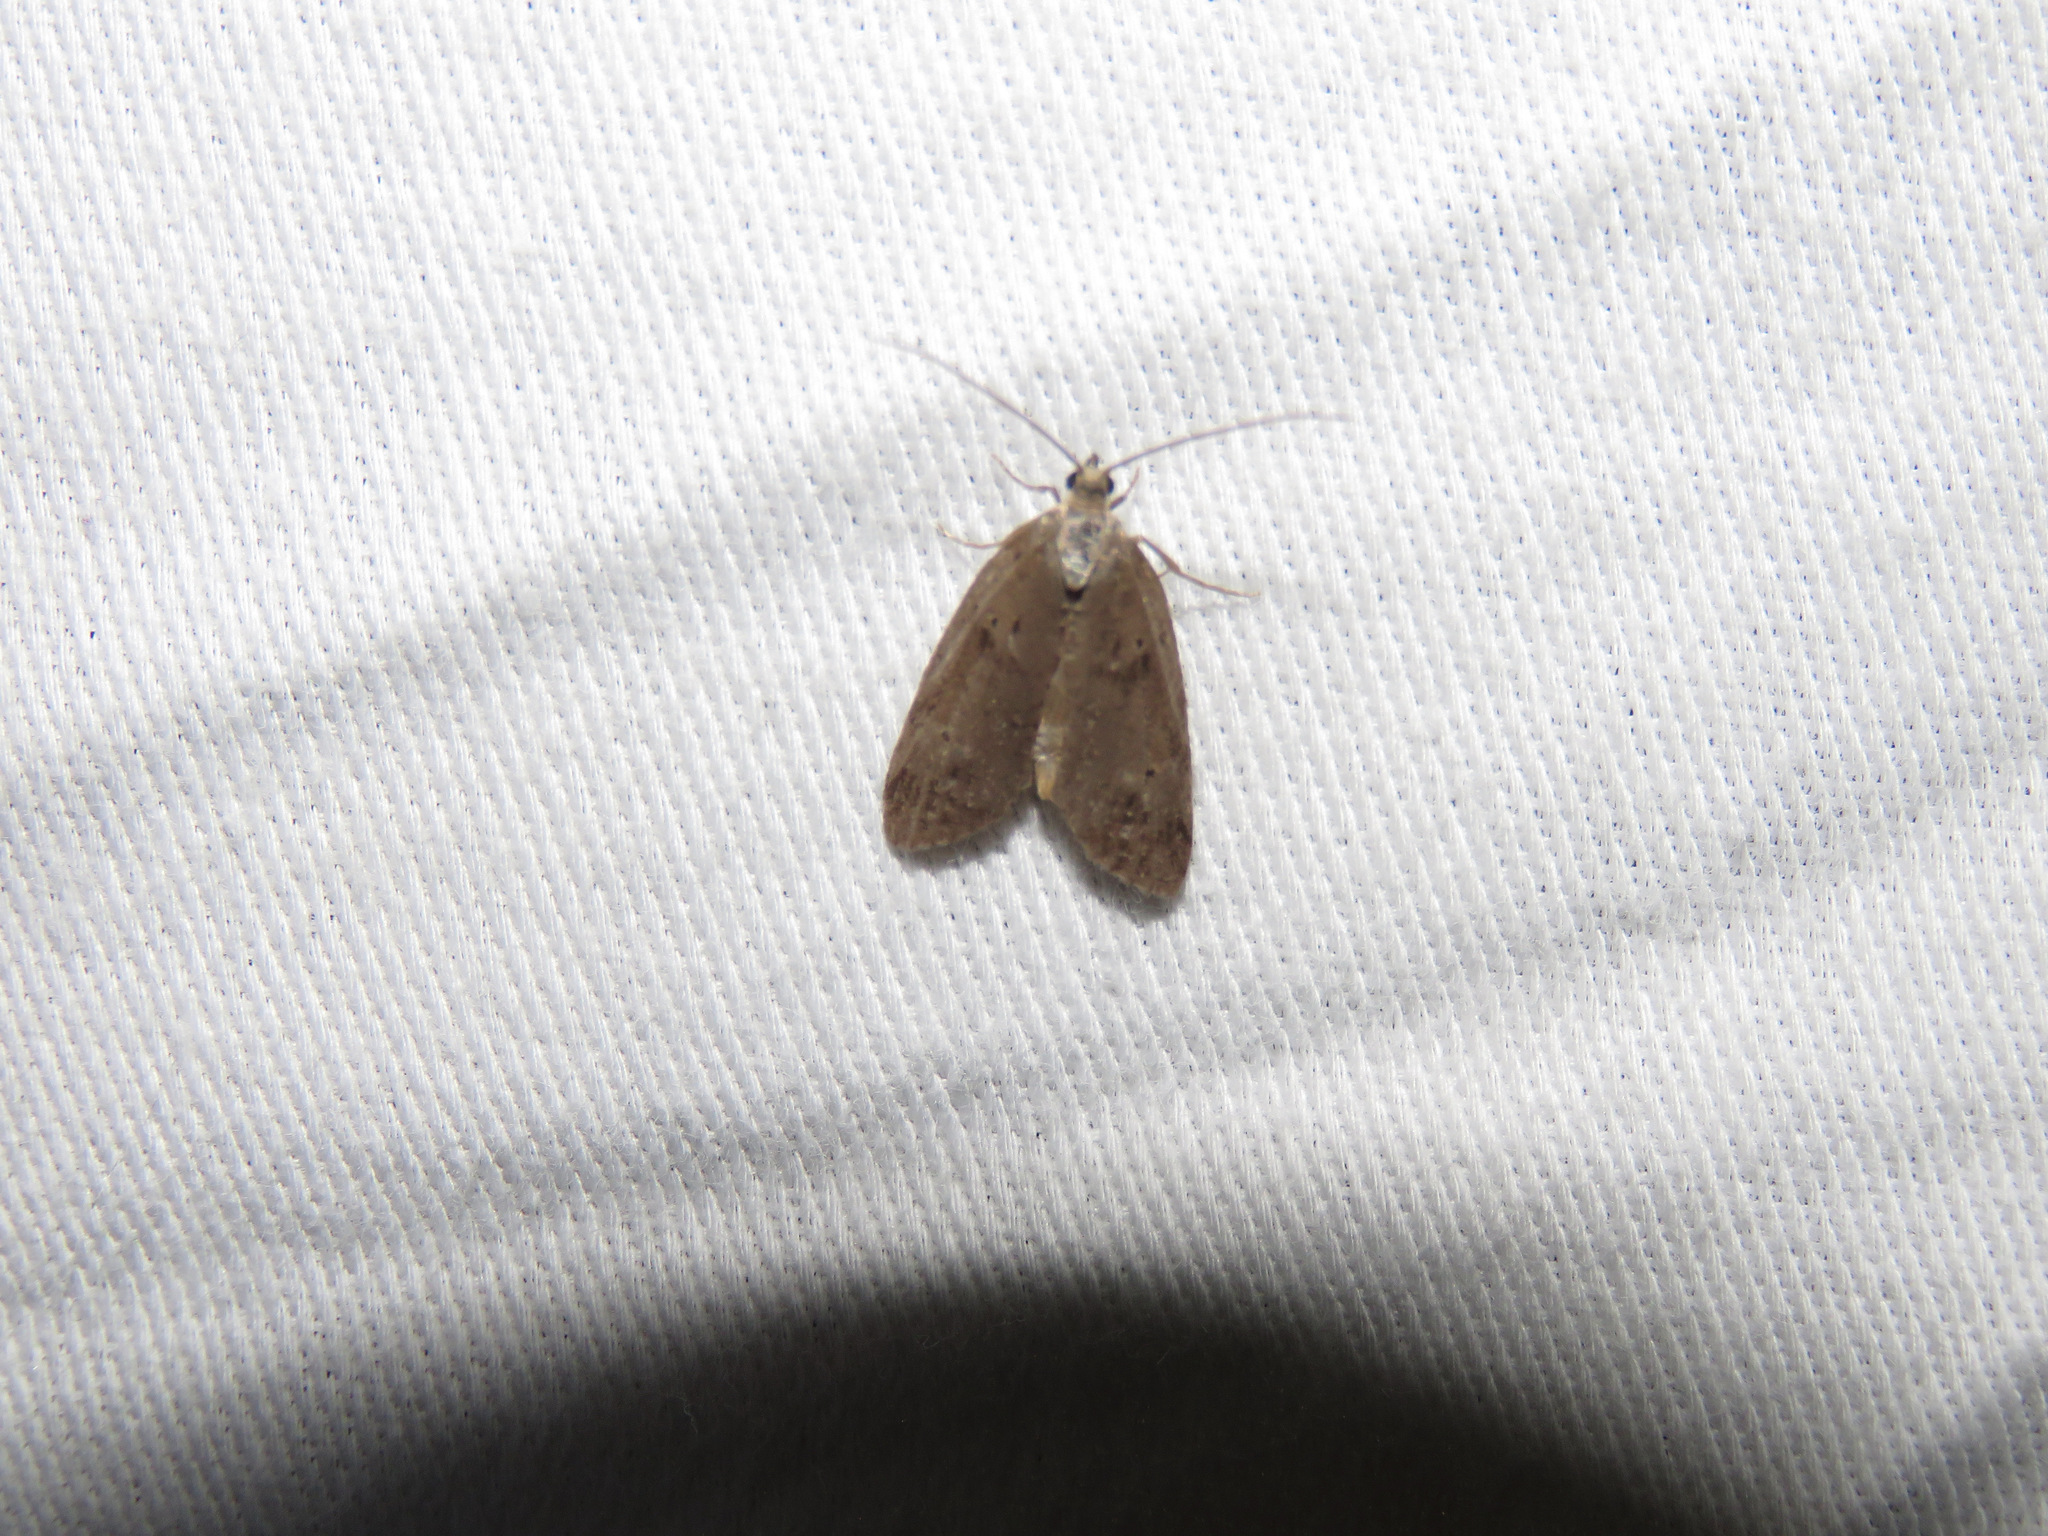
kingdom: Animalia
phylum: Arthropoda
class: Insecta
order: Lepidoptera
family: Copromorphidae
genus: Lotisma
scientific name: Lotisma trigonana
